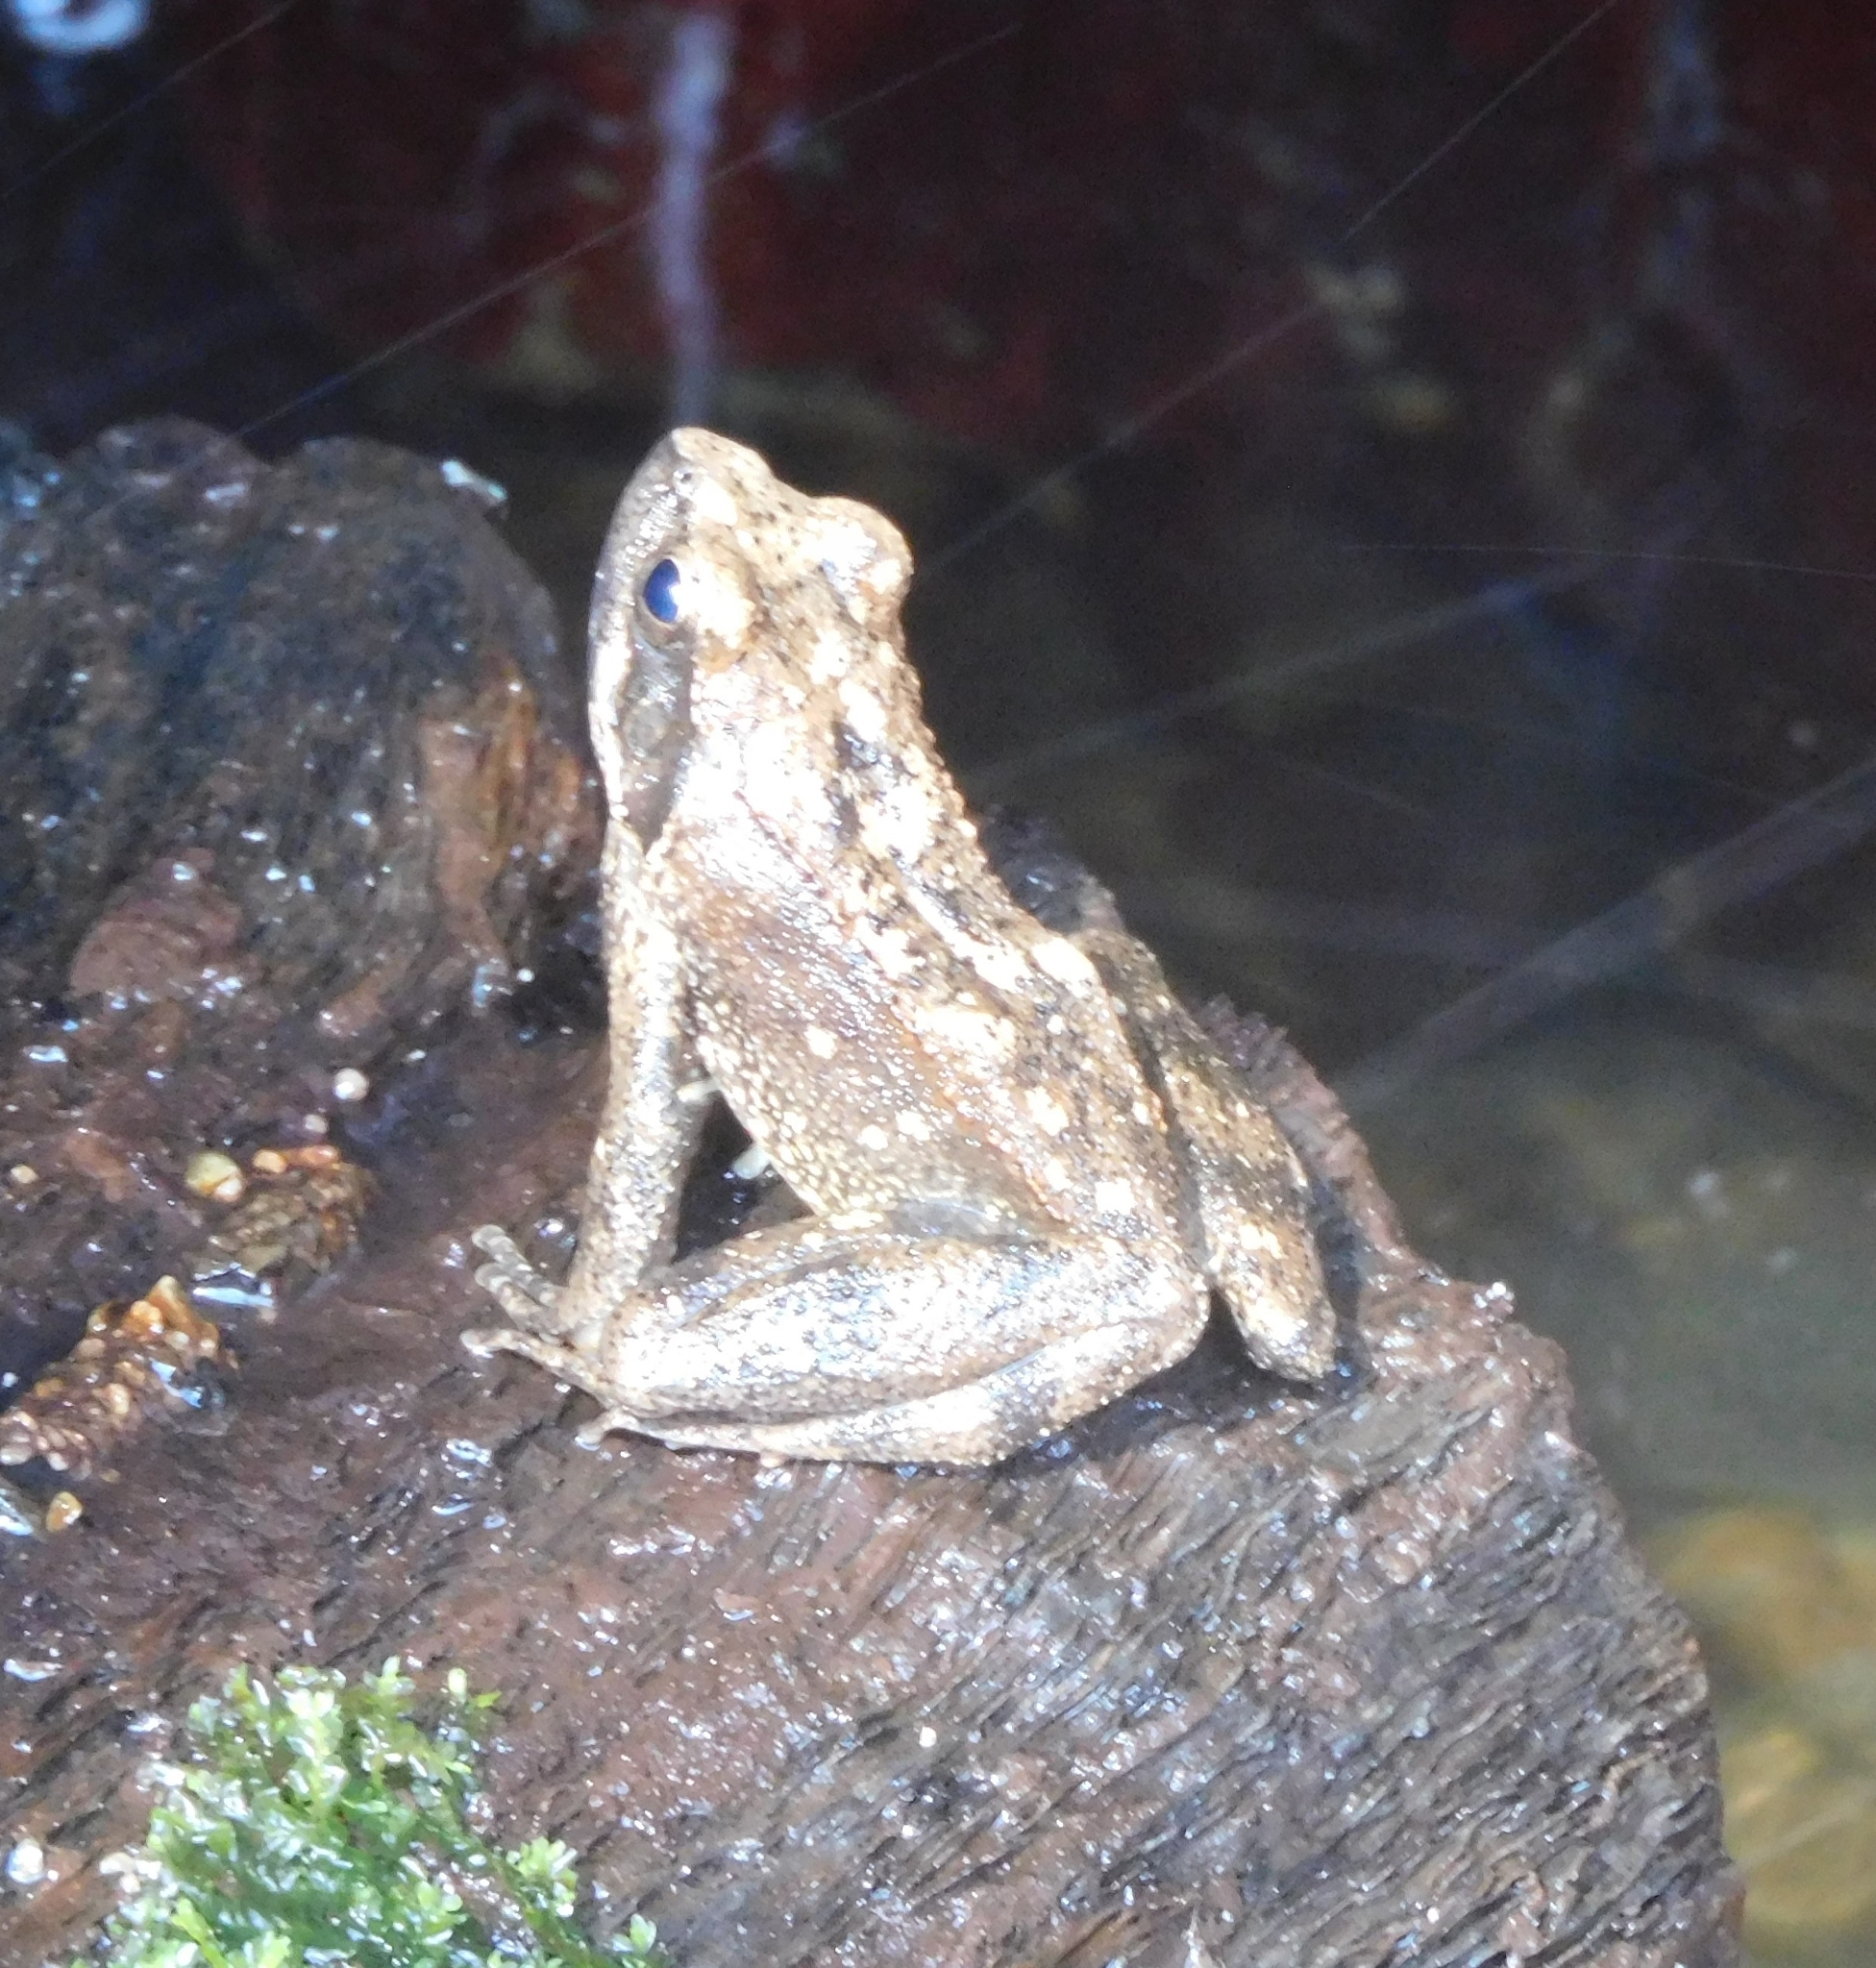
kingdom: Animalia
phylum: Chordata
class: Amphibia
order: Anura
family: Ranidae
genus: Rana
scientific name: Rana italica
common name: Italian stream frog
